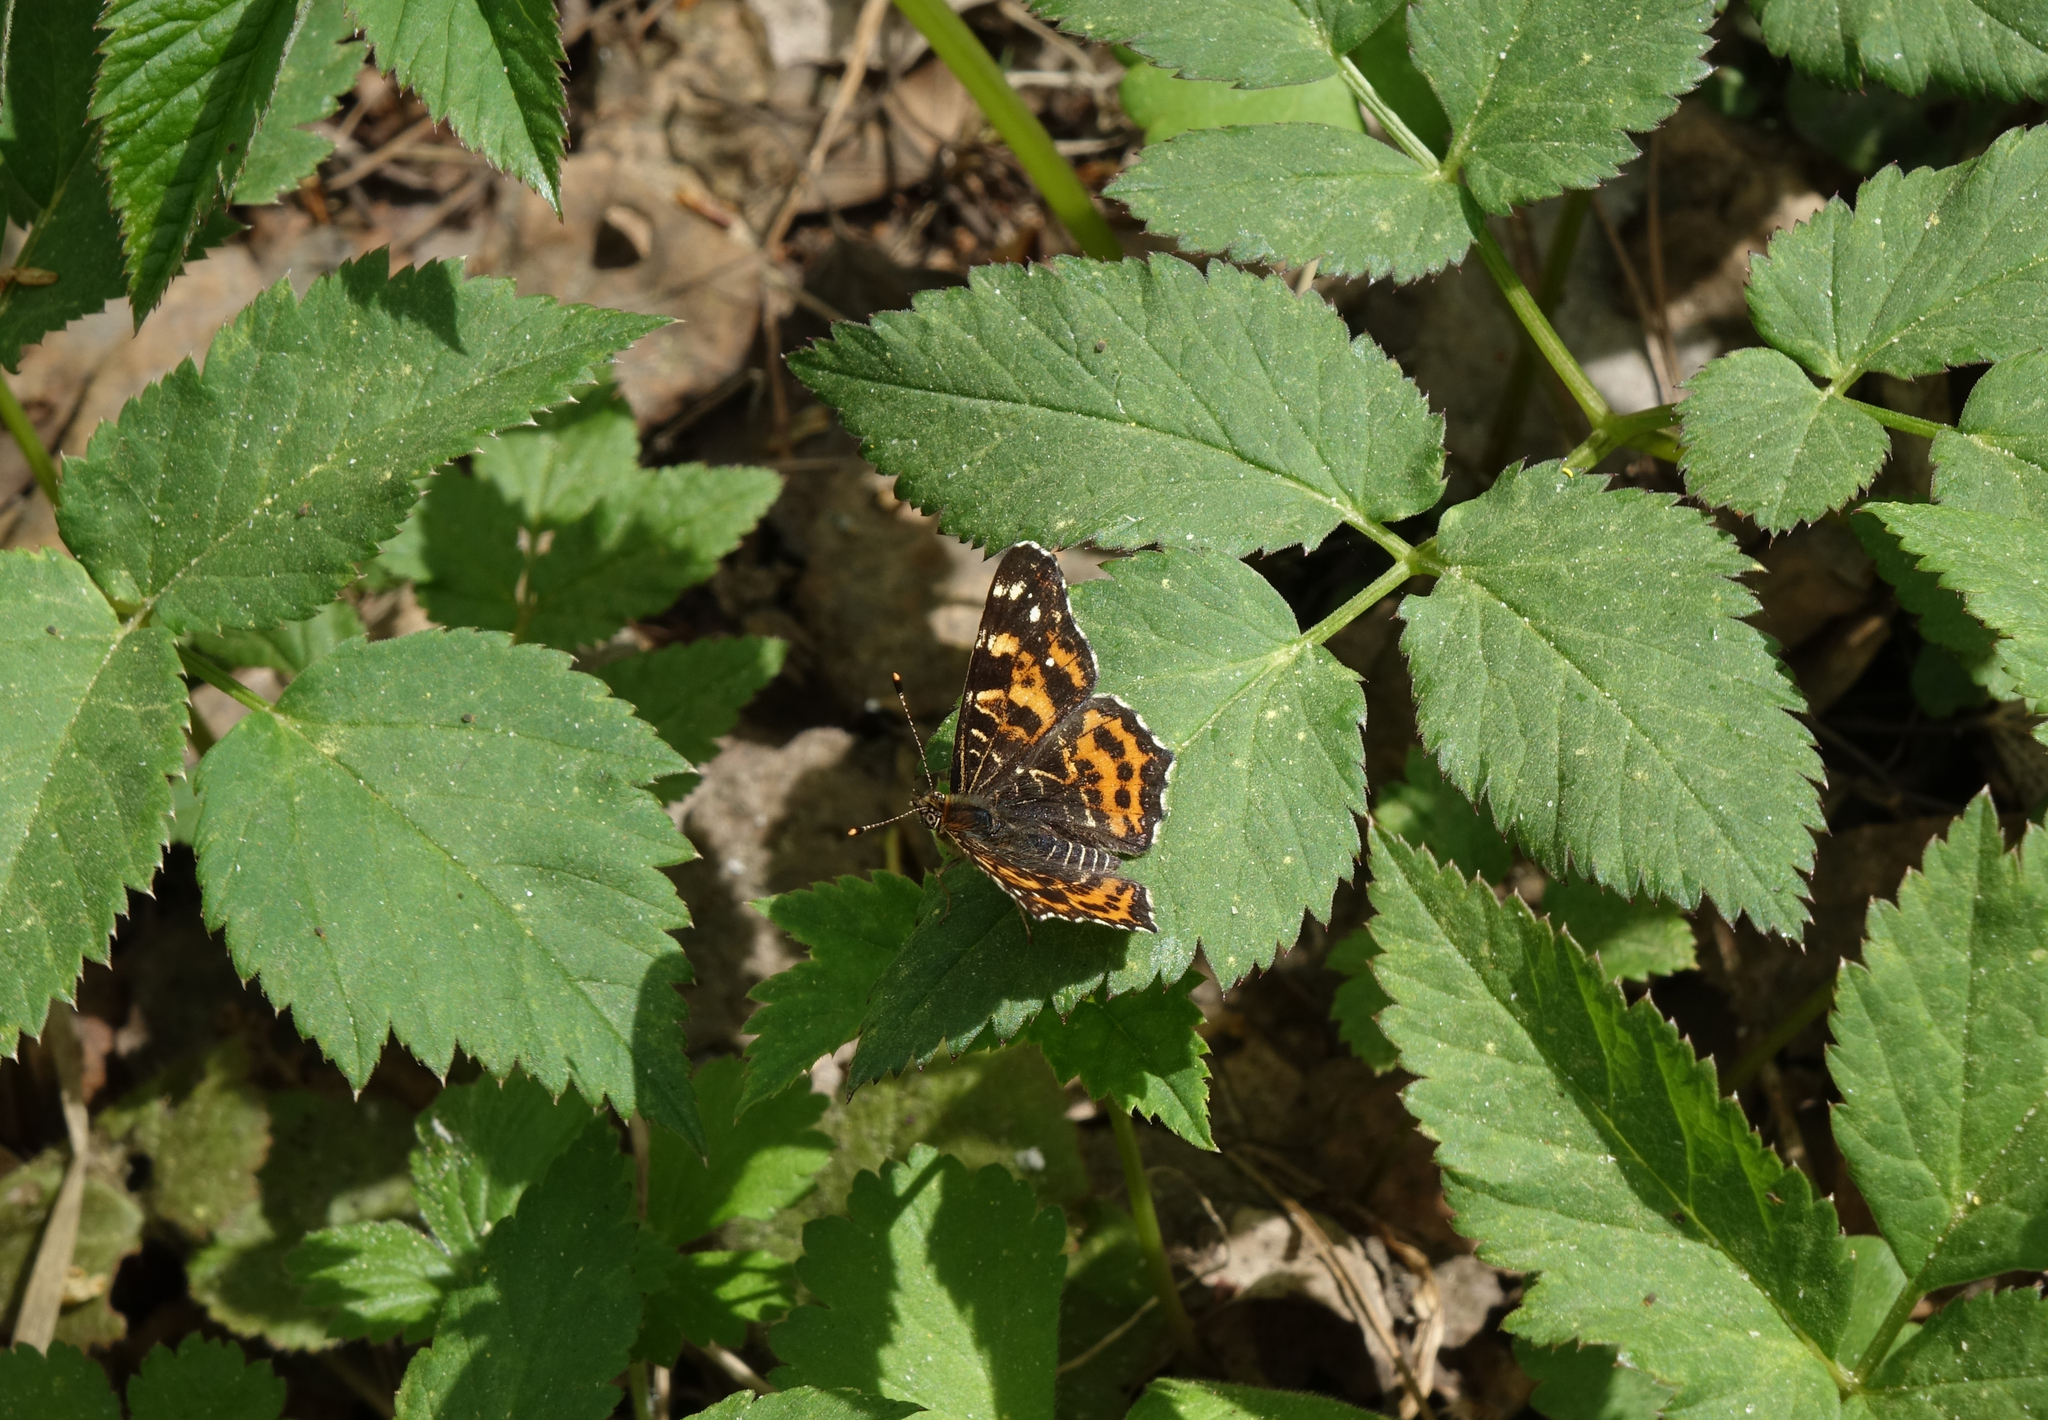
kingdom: Animalia
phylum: Arthropoda
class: Insecta
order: Lepidoptera
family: Nymphalidae
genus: Araschnia
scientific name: Araschnia levana
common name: Map butterfly
